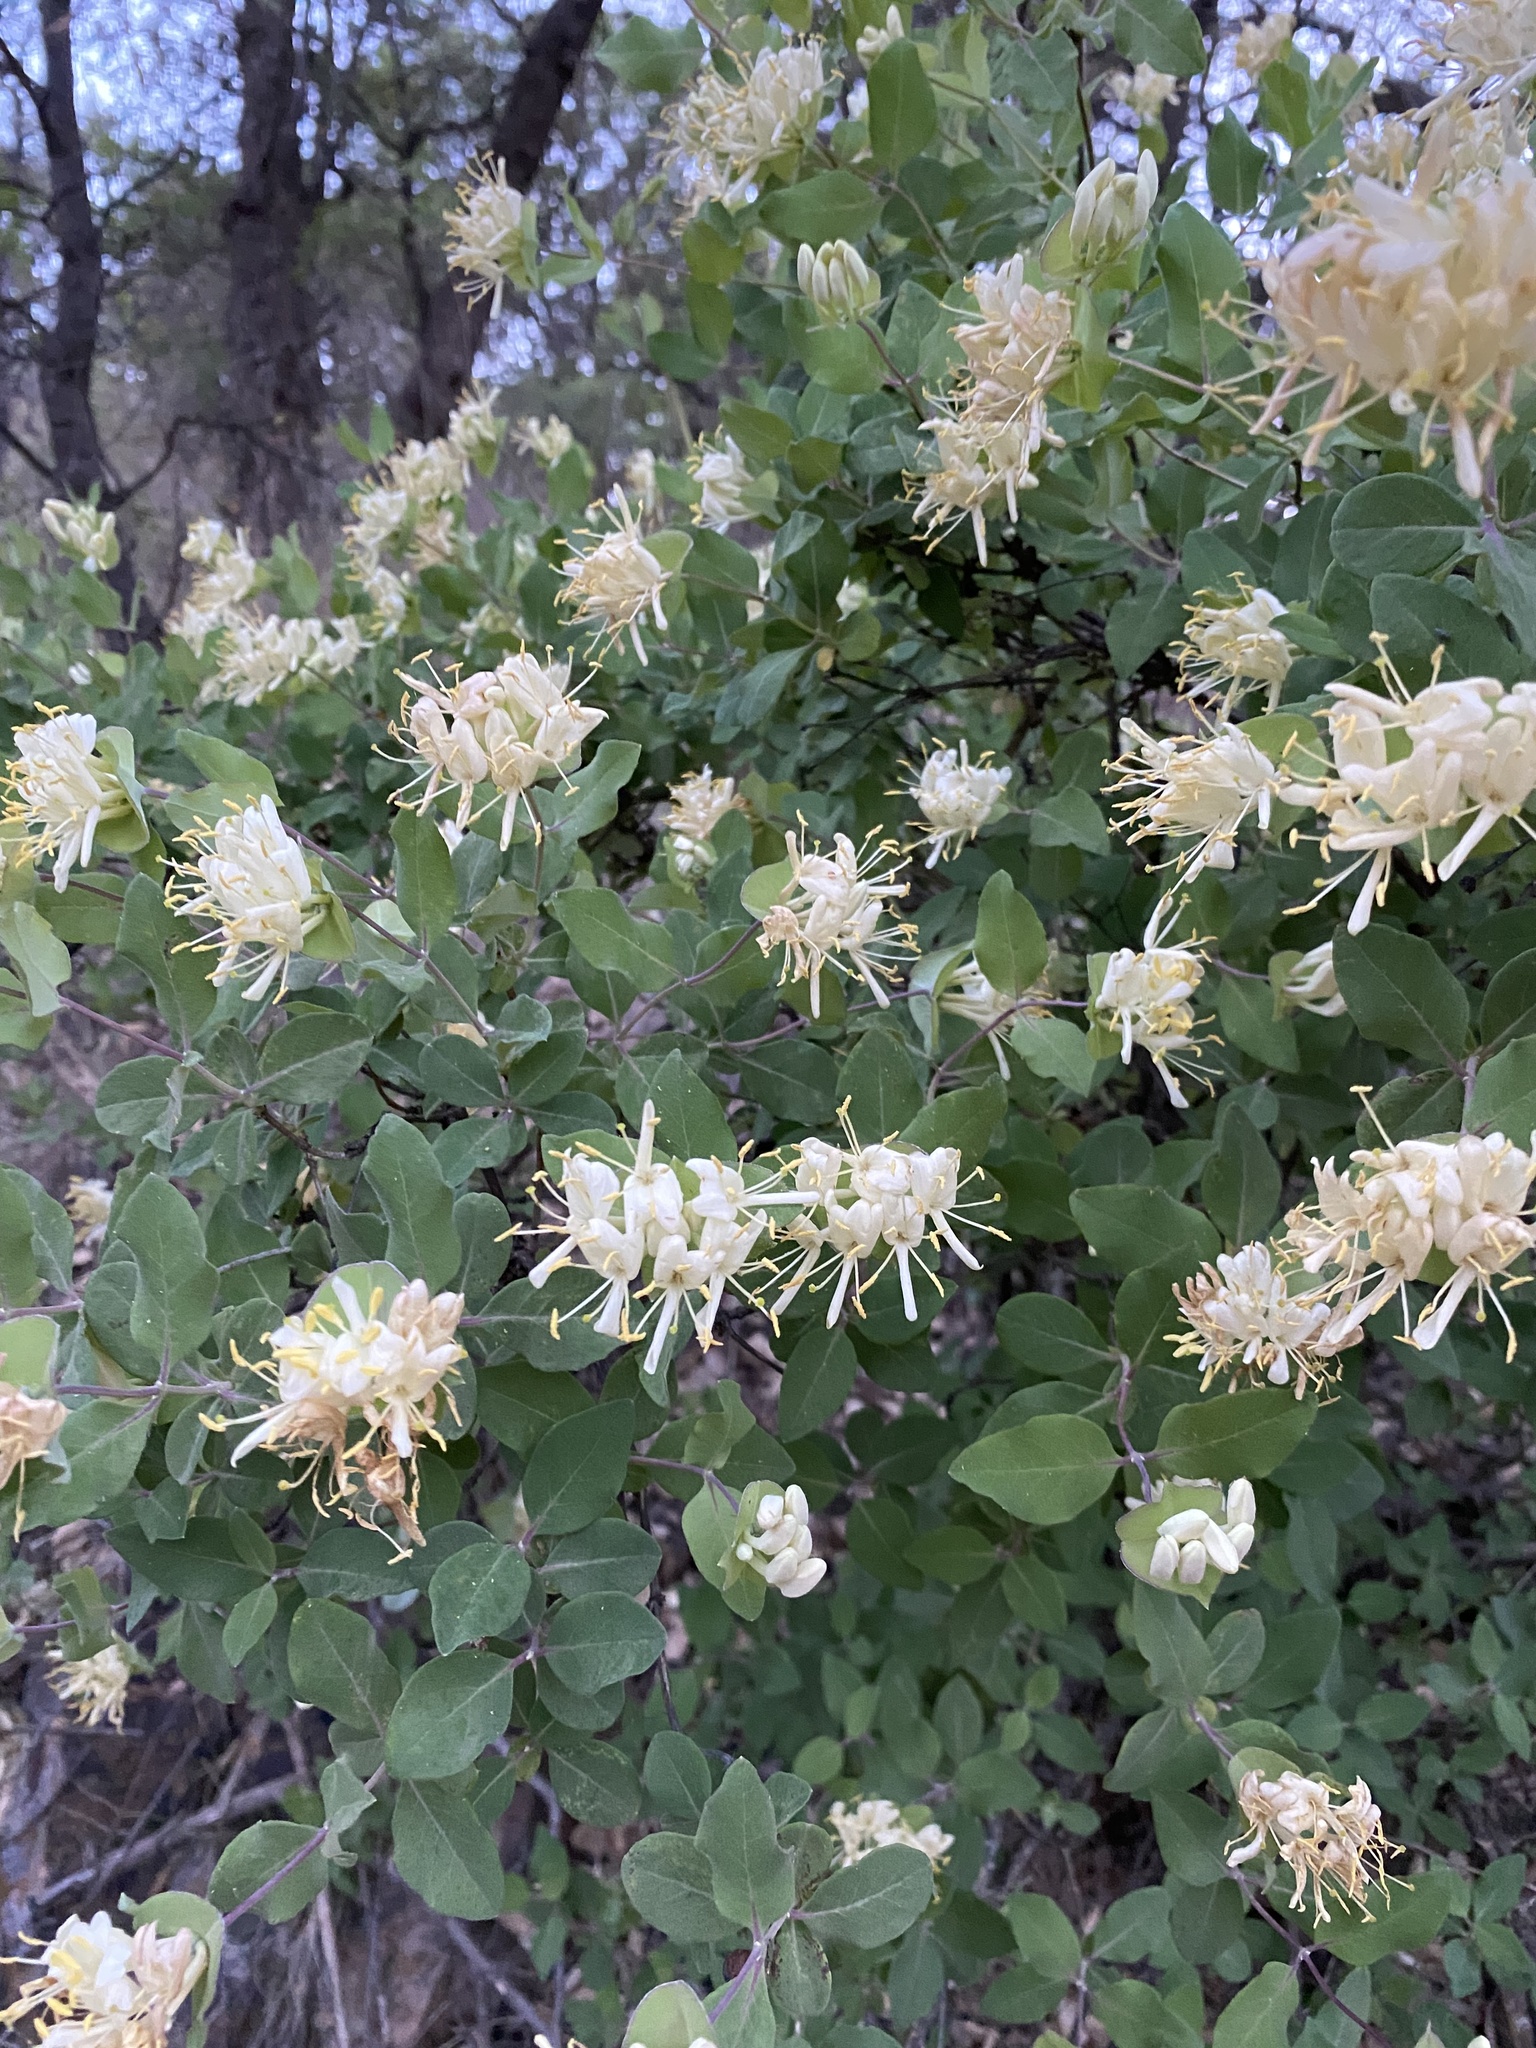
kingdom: Plantae
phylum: Tracheophyta
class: Magnoliopsida
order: Dipsacales
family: Caprifoliaceae
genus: Lonicera
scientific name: Lonicera albiflora
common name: White honeysuckle
